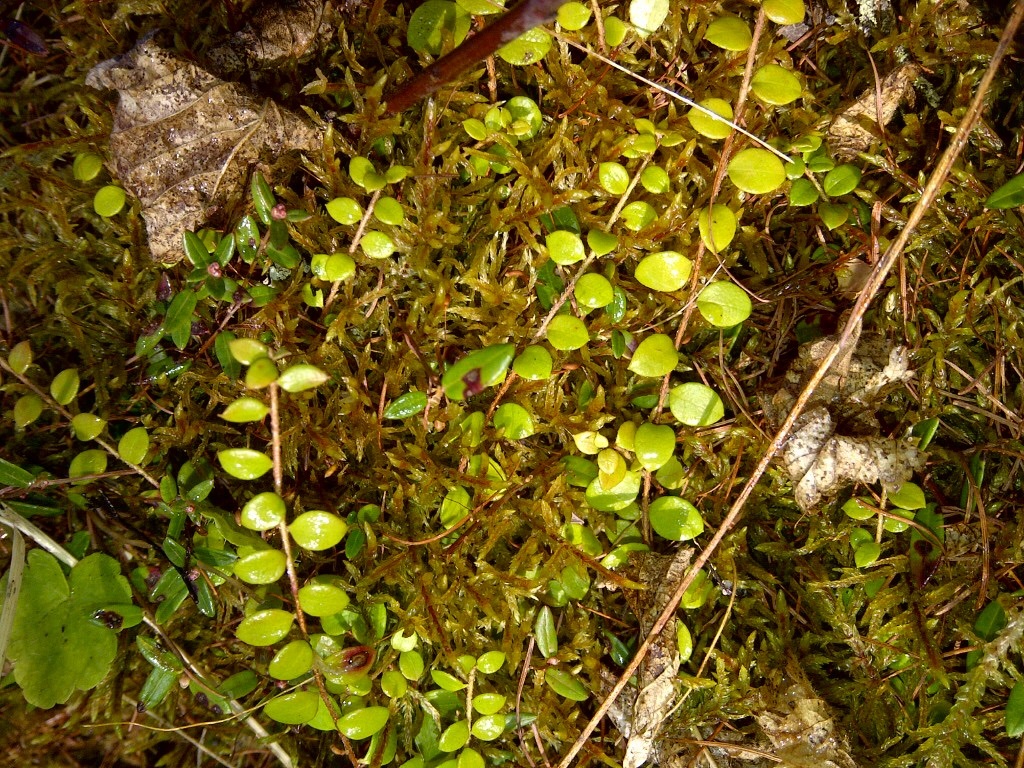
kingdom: Plantae
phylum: Tracheophyta
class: Magnoliopsida
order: Ericales
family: Ericaceae
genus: Gaultheria
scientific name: Gaultheria hispidula
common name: Cancer wintergreen
